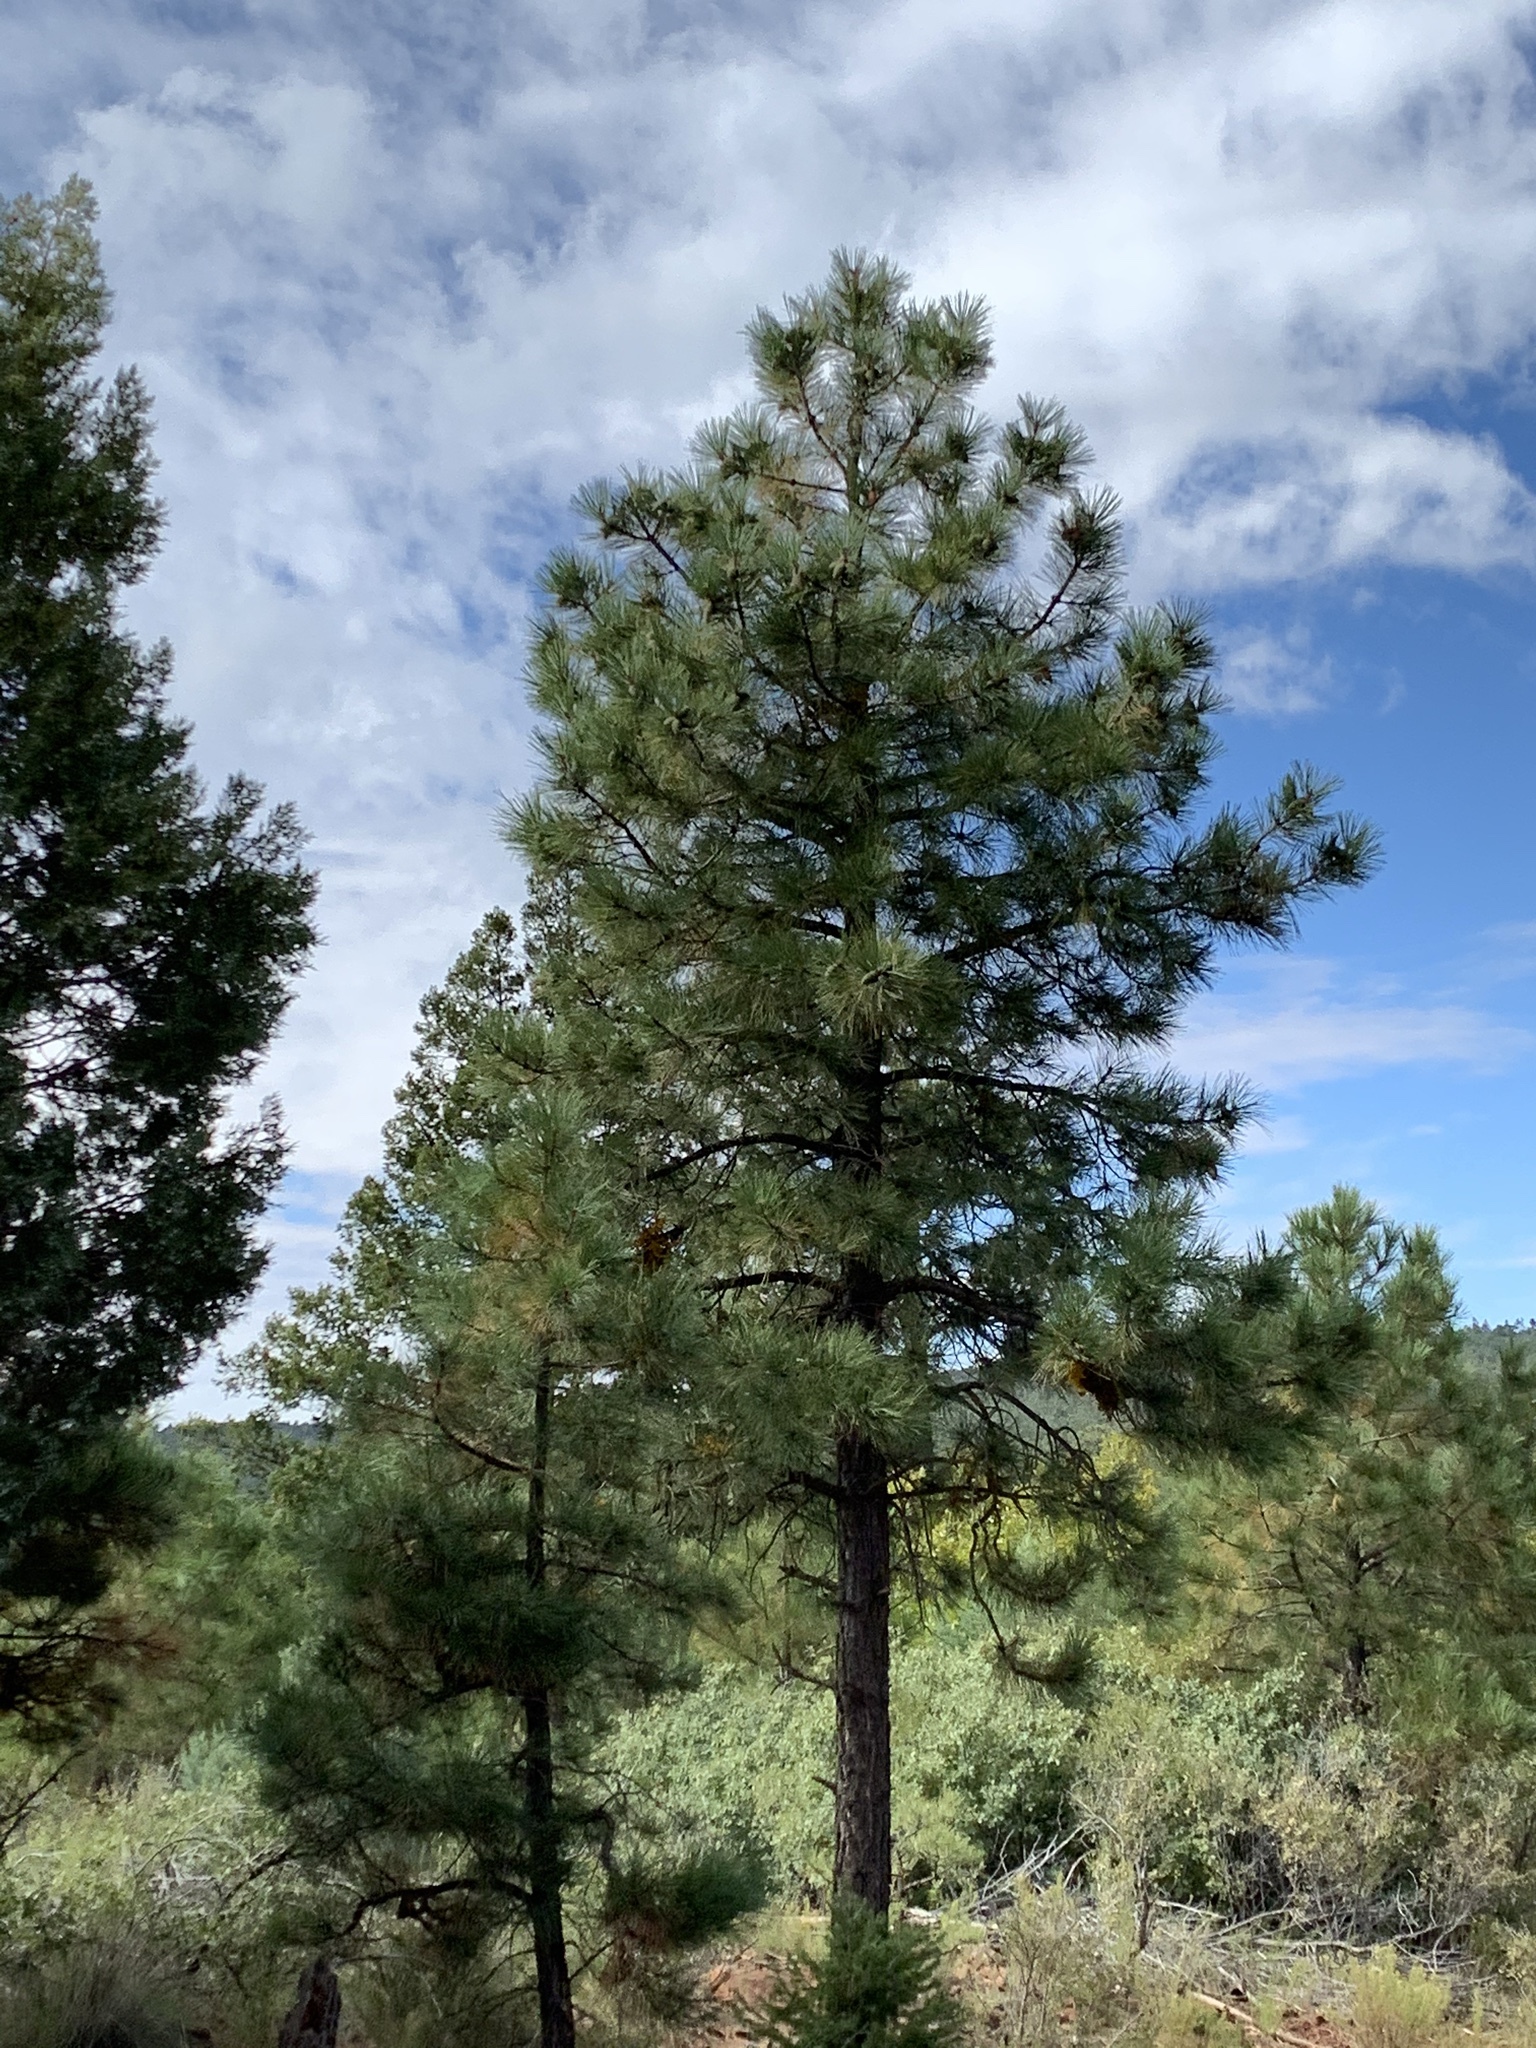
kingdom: Plantae
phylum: Tracheophyta
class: Pinopsida
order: Pinales
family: Pinaceae
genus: Pinus
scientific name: Pinus ponderosa
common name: Western yellow-pine
